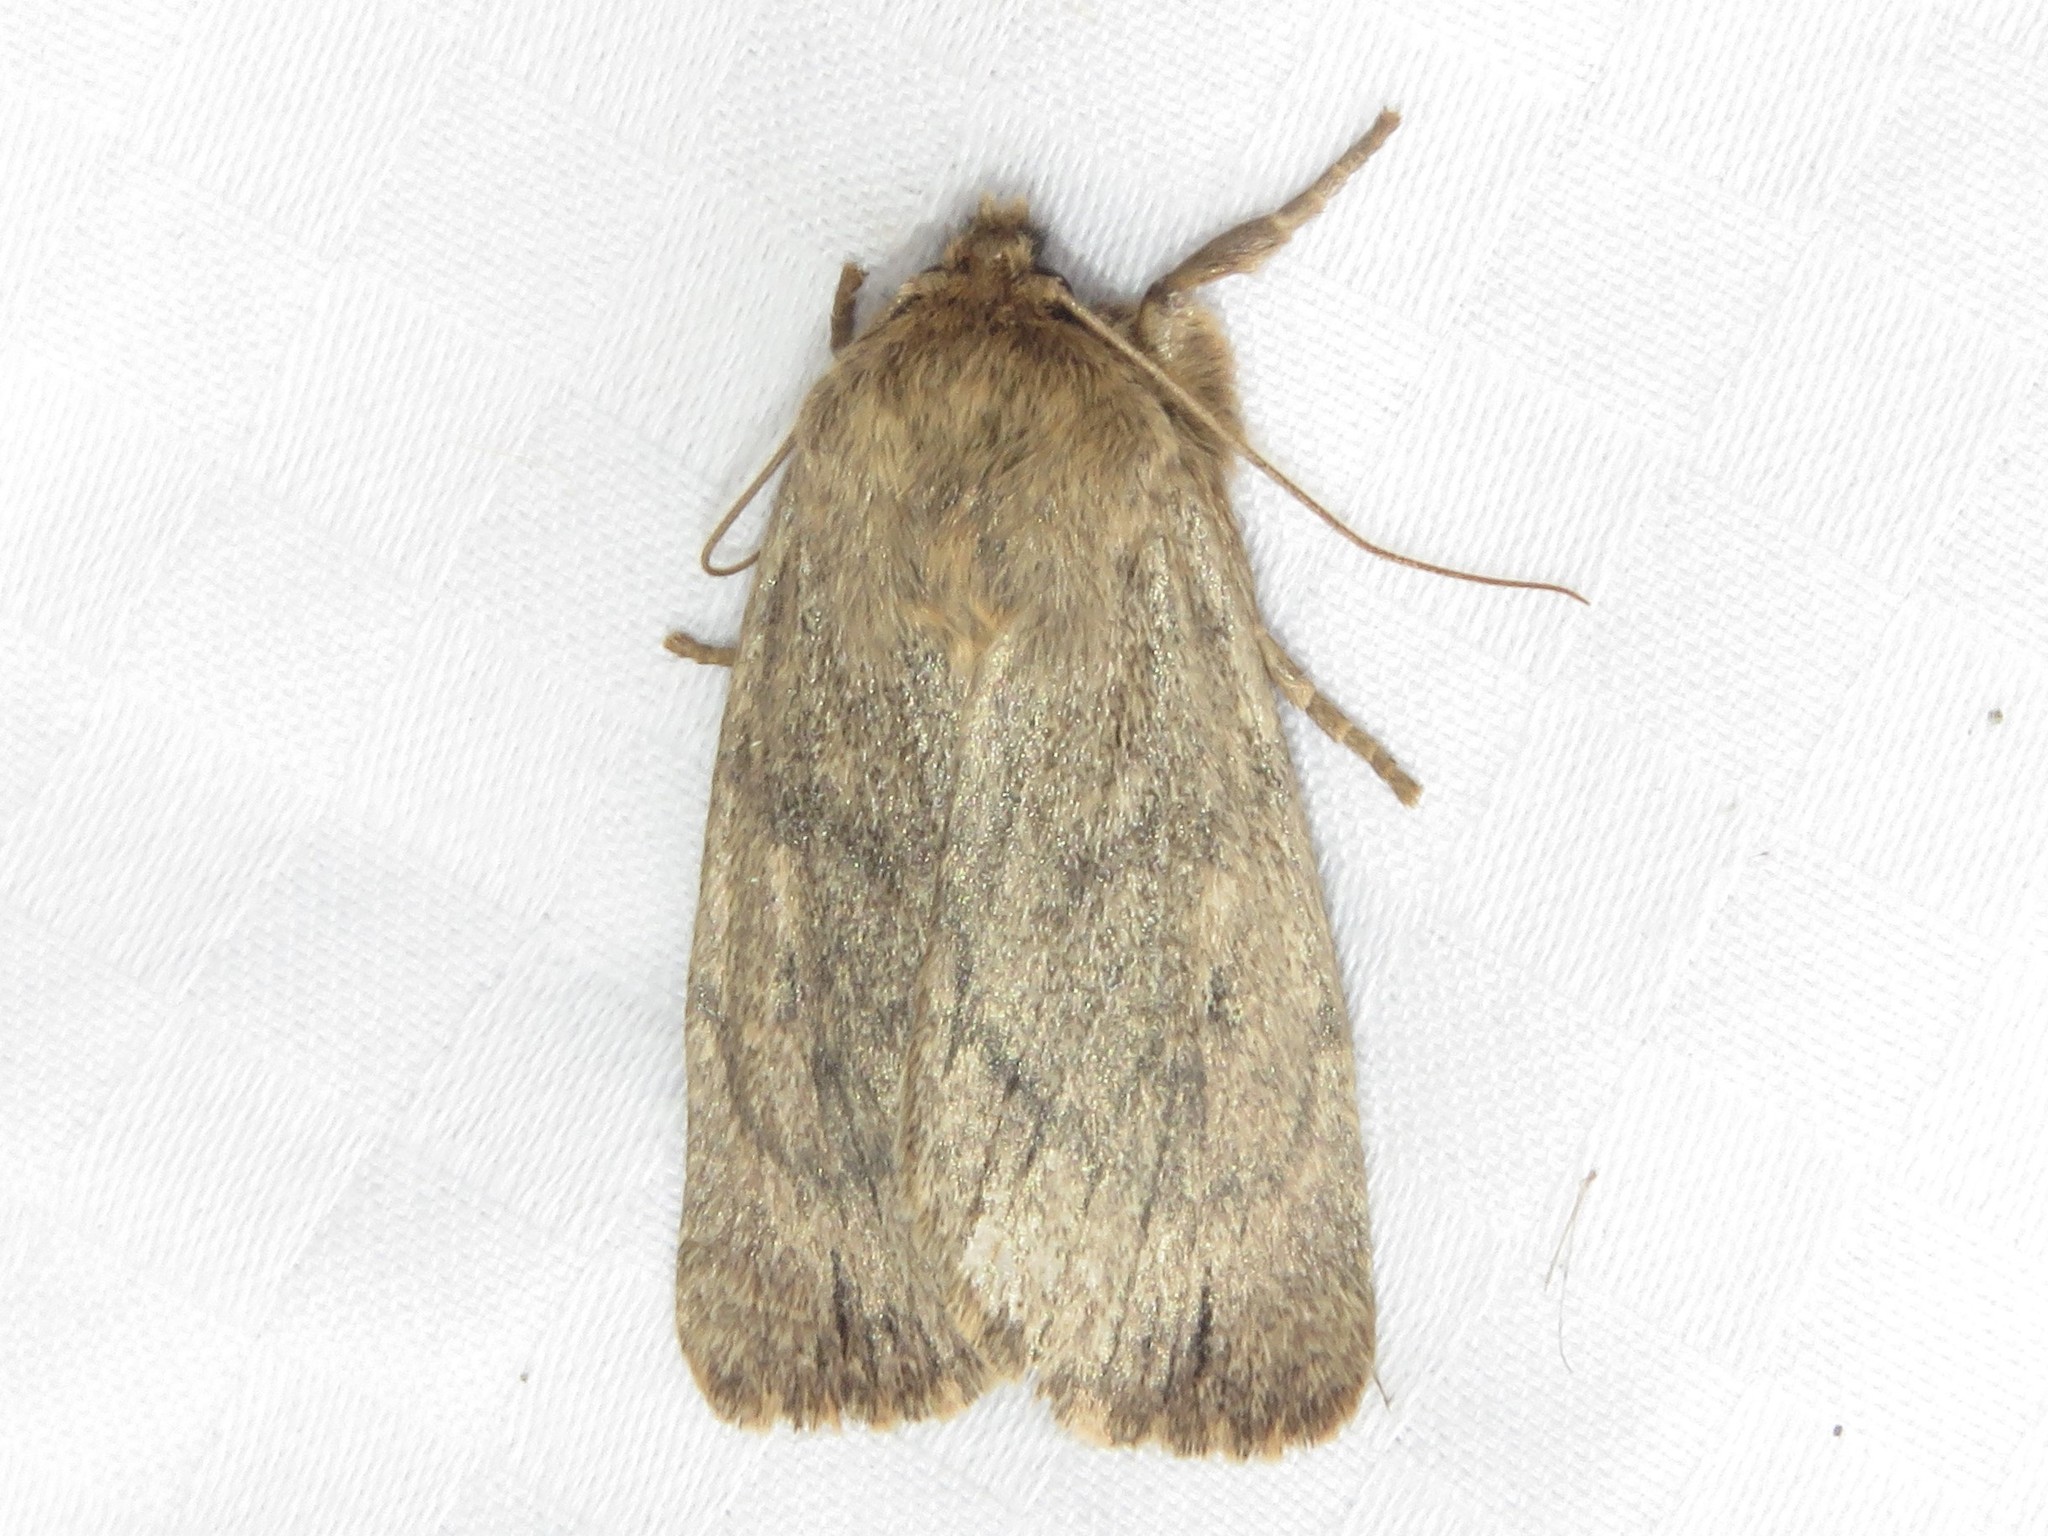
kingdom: Animalia
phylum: Arthropoda
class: Insecta
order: Lepidoptera
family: Noctuidae
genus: Ufeus
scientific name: Ufeus satyricus
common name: Brown satyr moth
